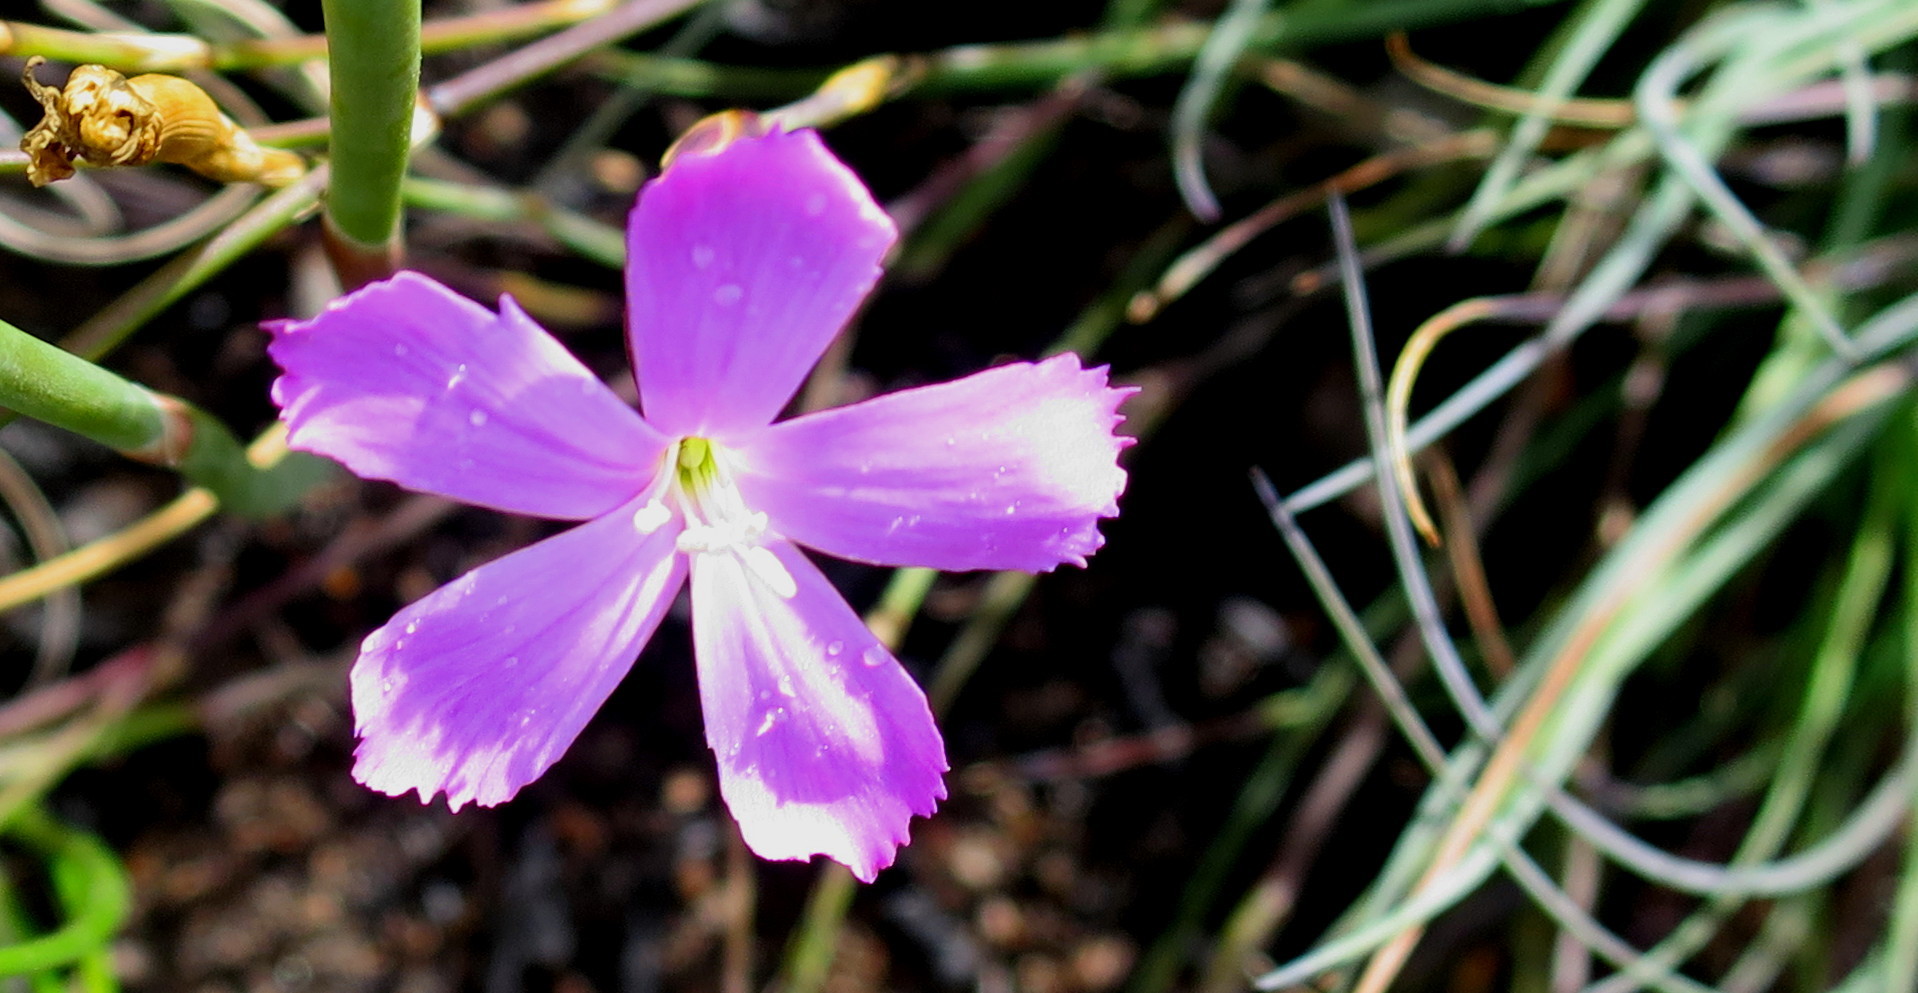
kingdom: Plantae
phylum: Tracheophyta
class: Magnoliopsida
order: Caryophyllales
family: Caryophyllaceae
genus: Dianthus
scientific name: Dianthus thunbergii
